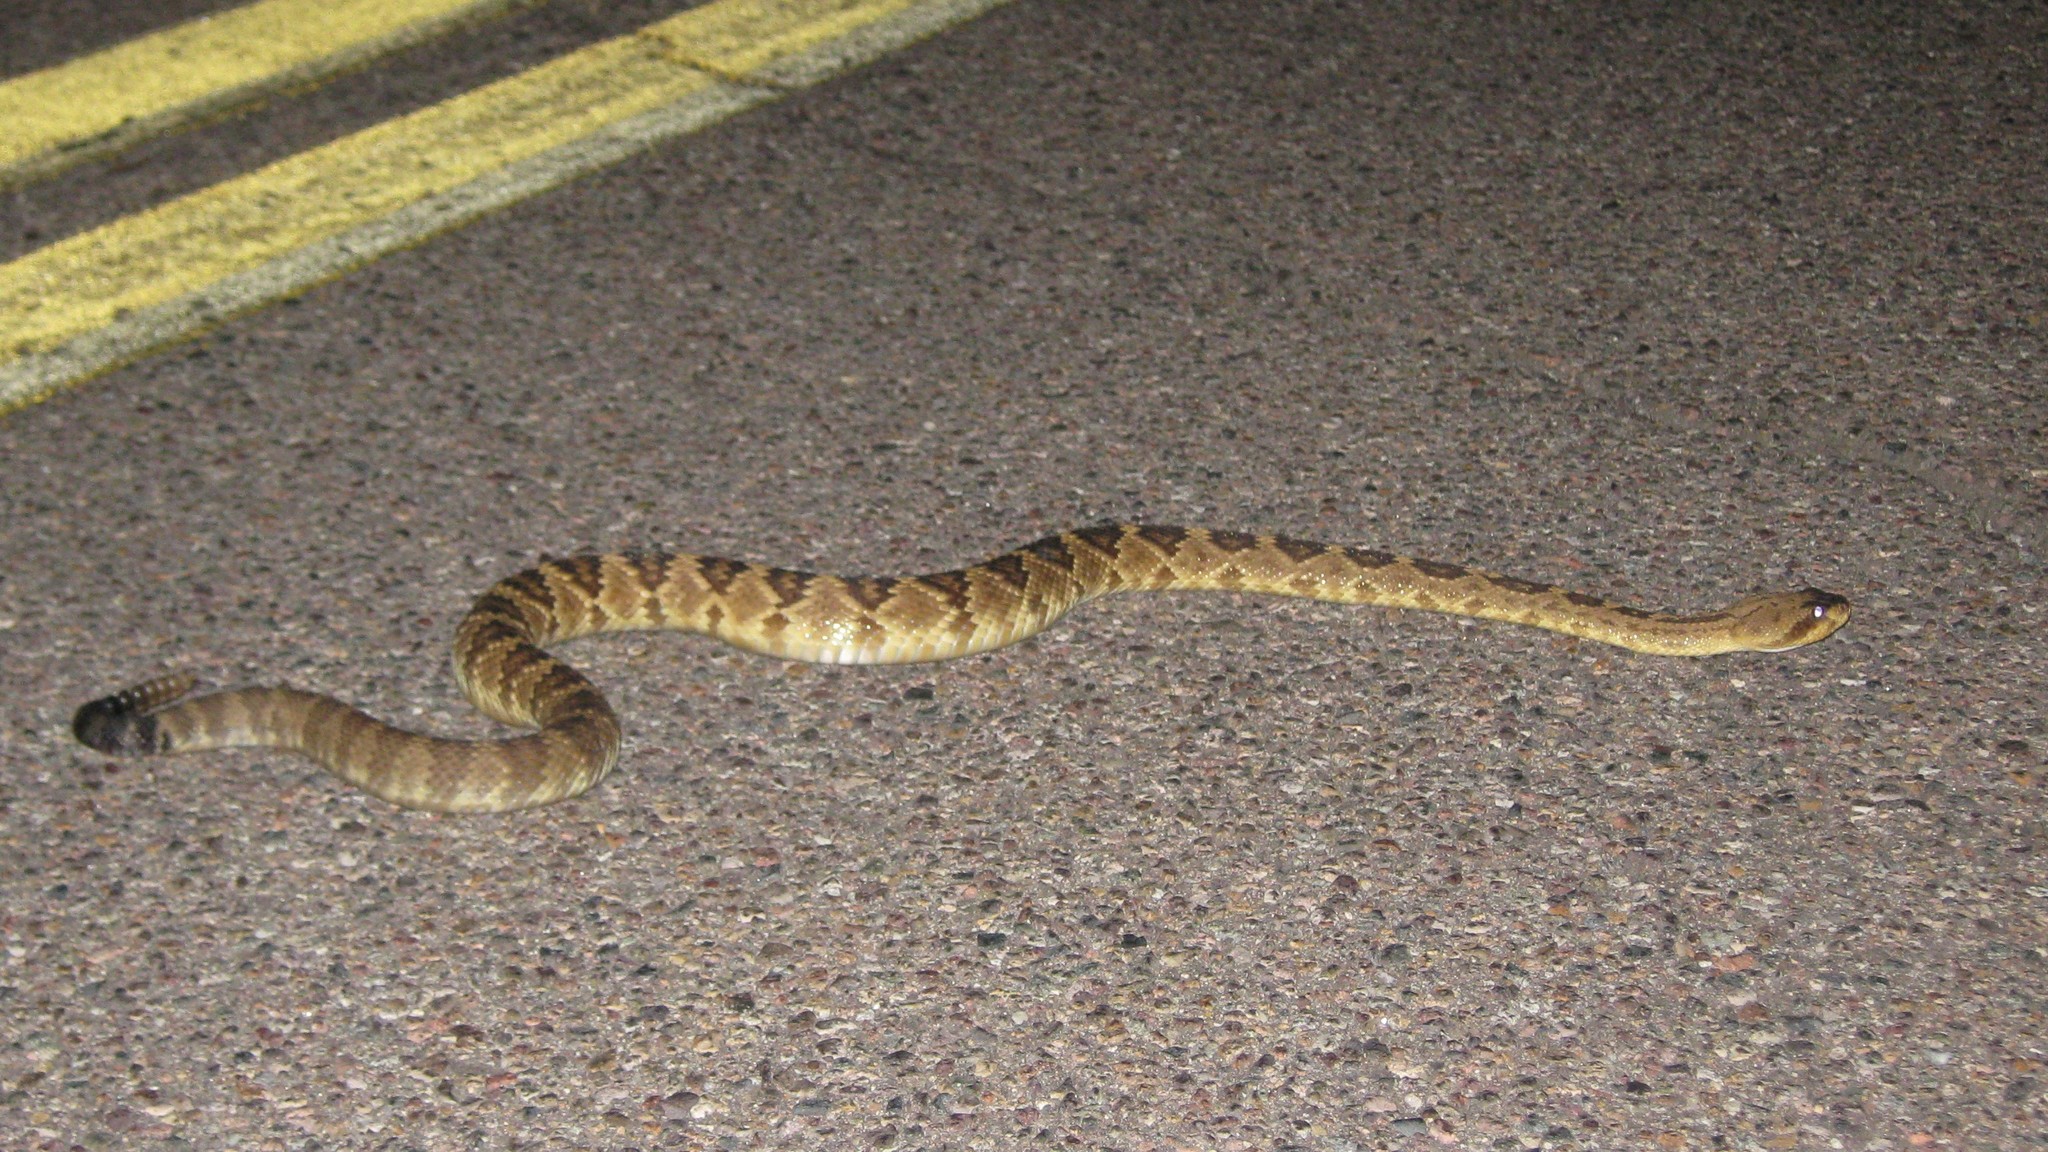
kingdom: Animalia
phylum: Chordata
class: Squamata
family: Viperidae
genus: Crotalus
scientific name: Crotalus molossus
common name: Black tailed rattlesnake
